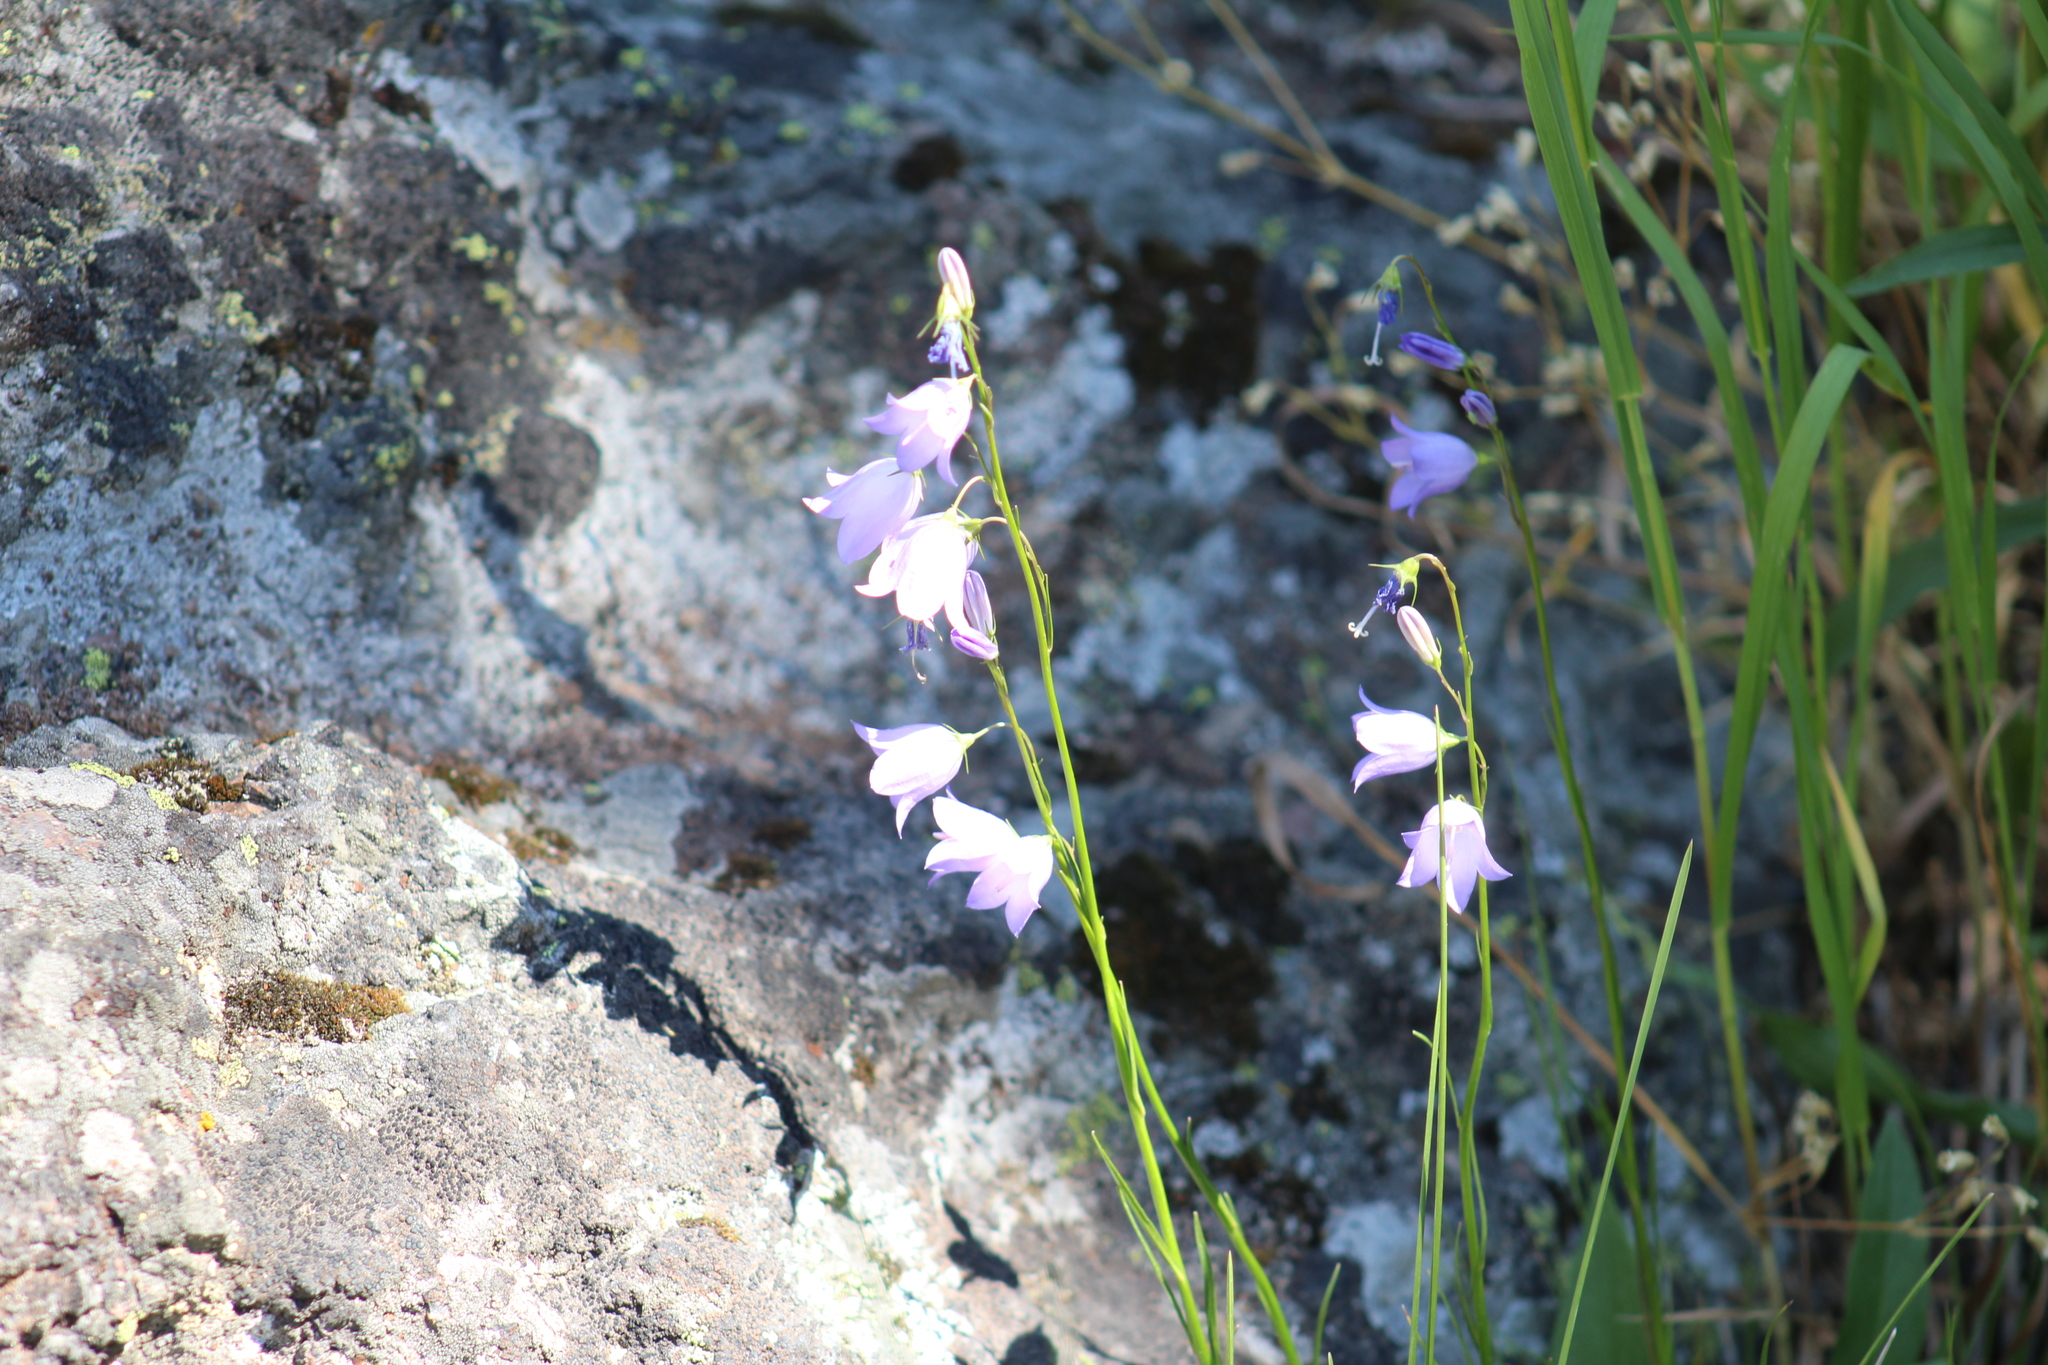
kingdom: Plantae
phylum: Tracheophyta
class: Magnoliopsida
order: Asterales
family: Campanulaceae
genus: Campanula
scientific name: Campanula petiolata
